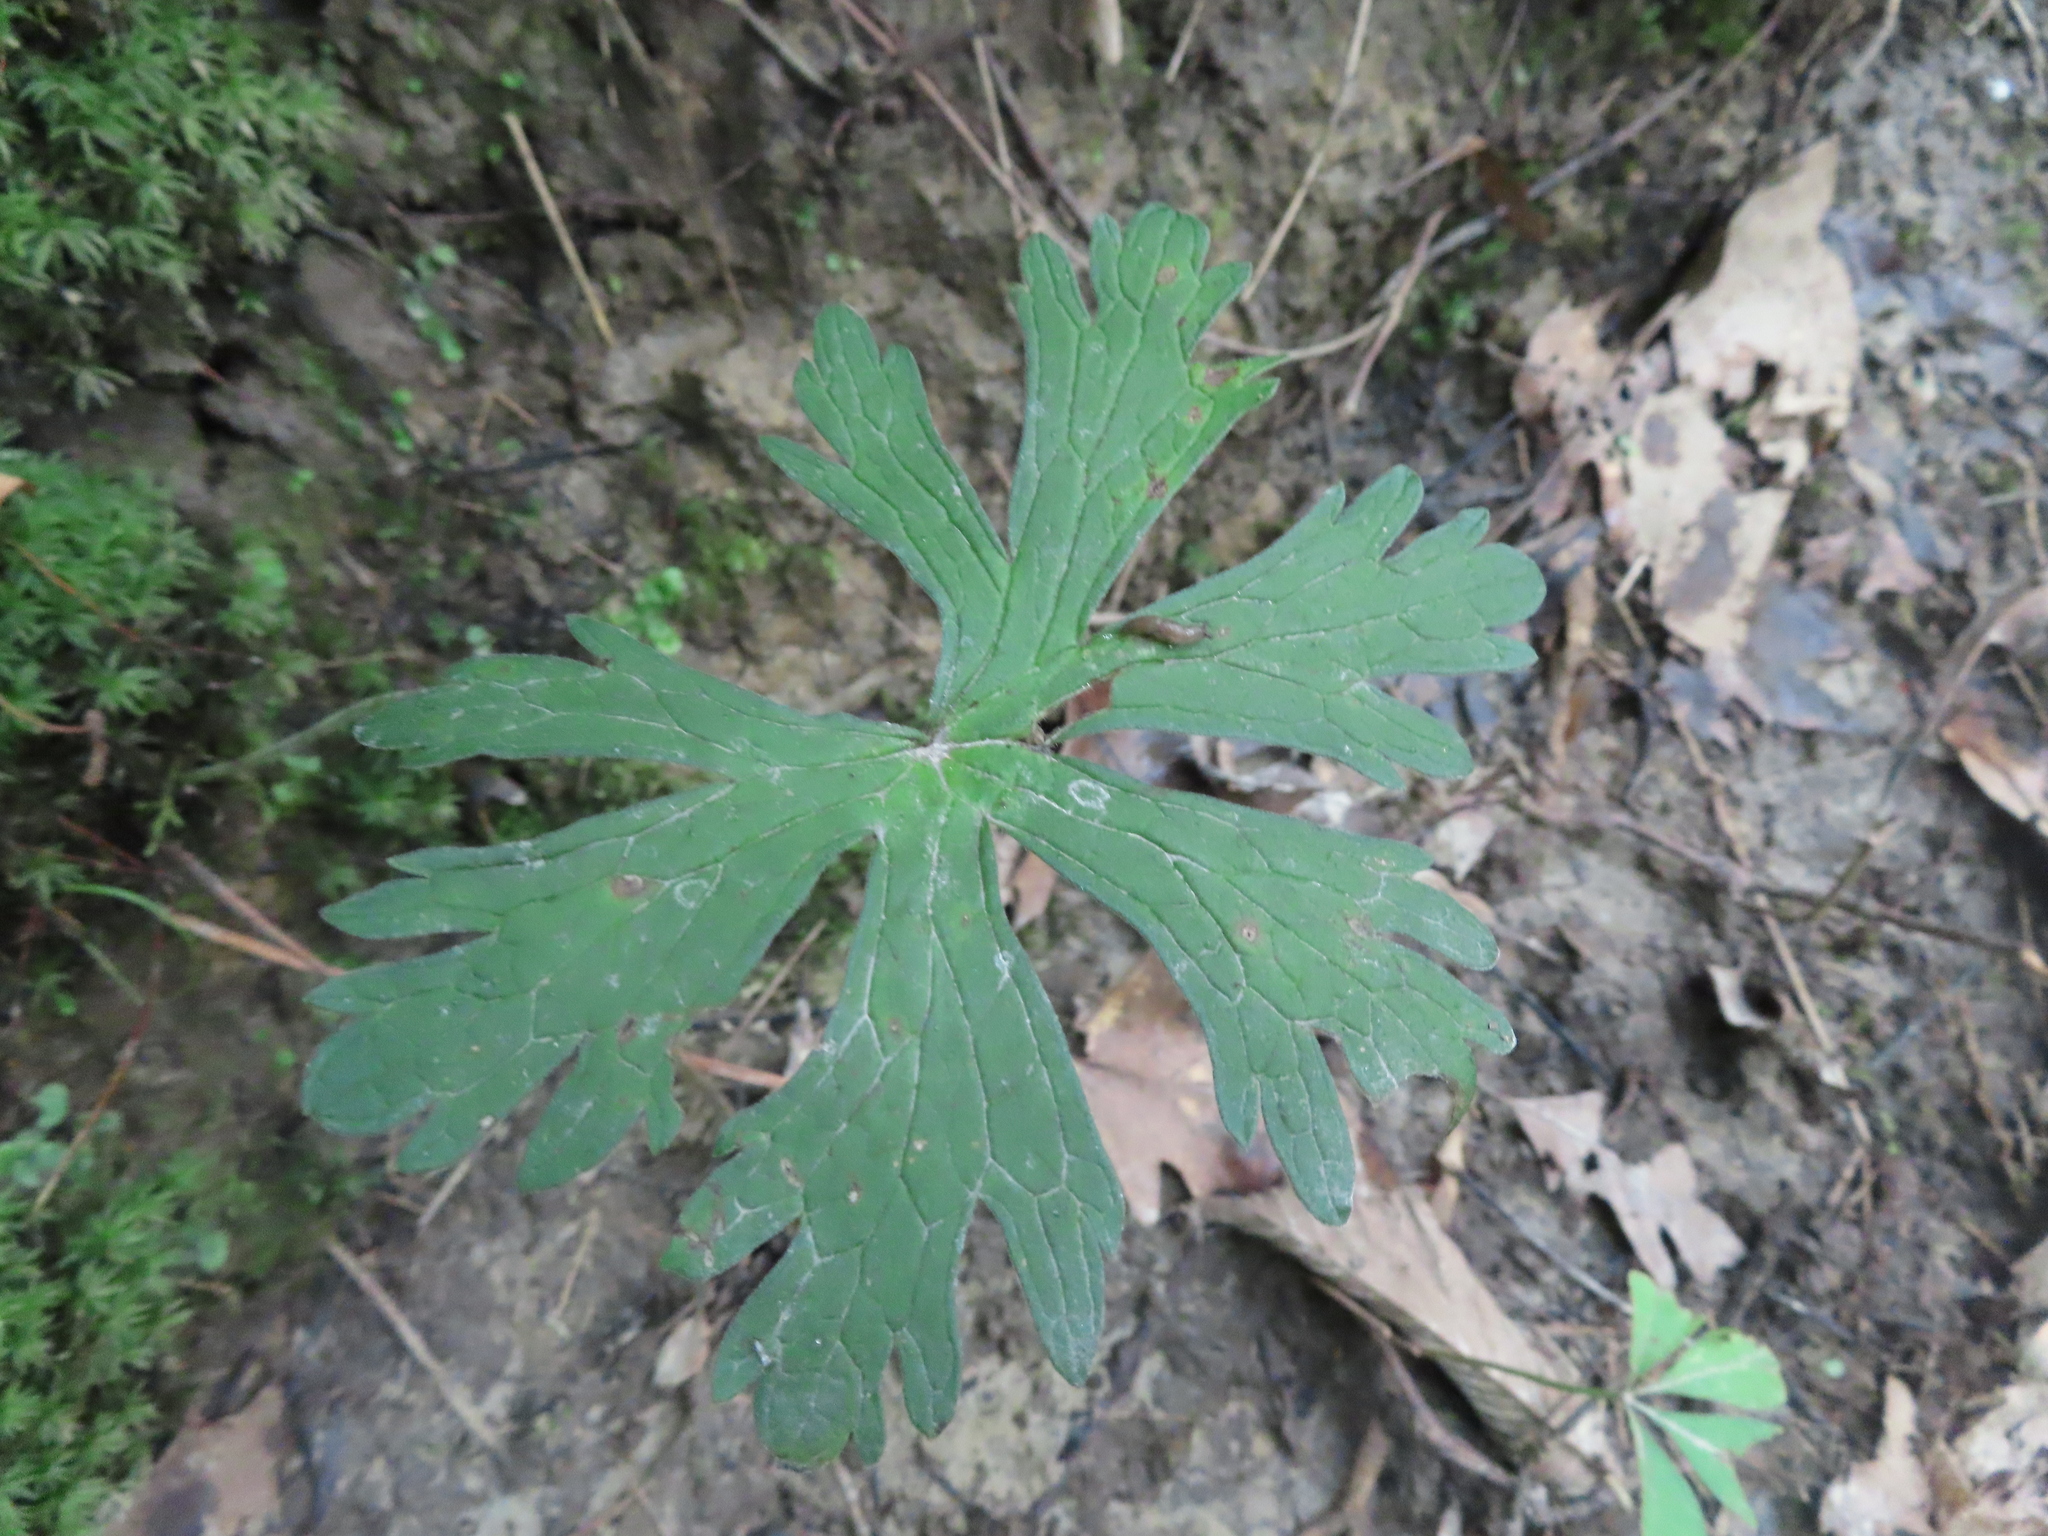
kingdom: Plantae
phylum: Tracheophyta
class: Magnoliopsida
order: Geraniales
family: Geraniaceae
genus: Geranium
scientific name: Geranium maculatum
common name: Spotted geranium
